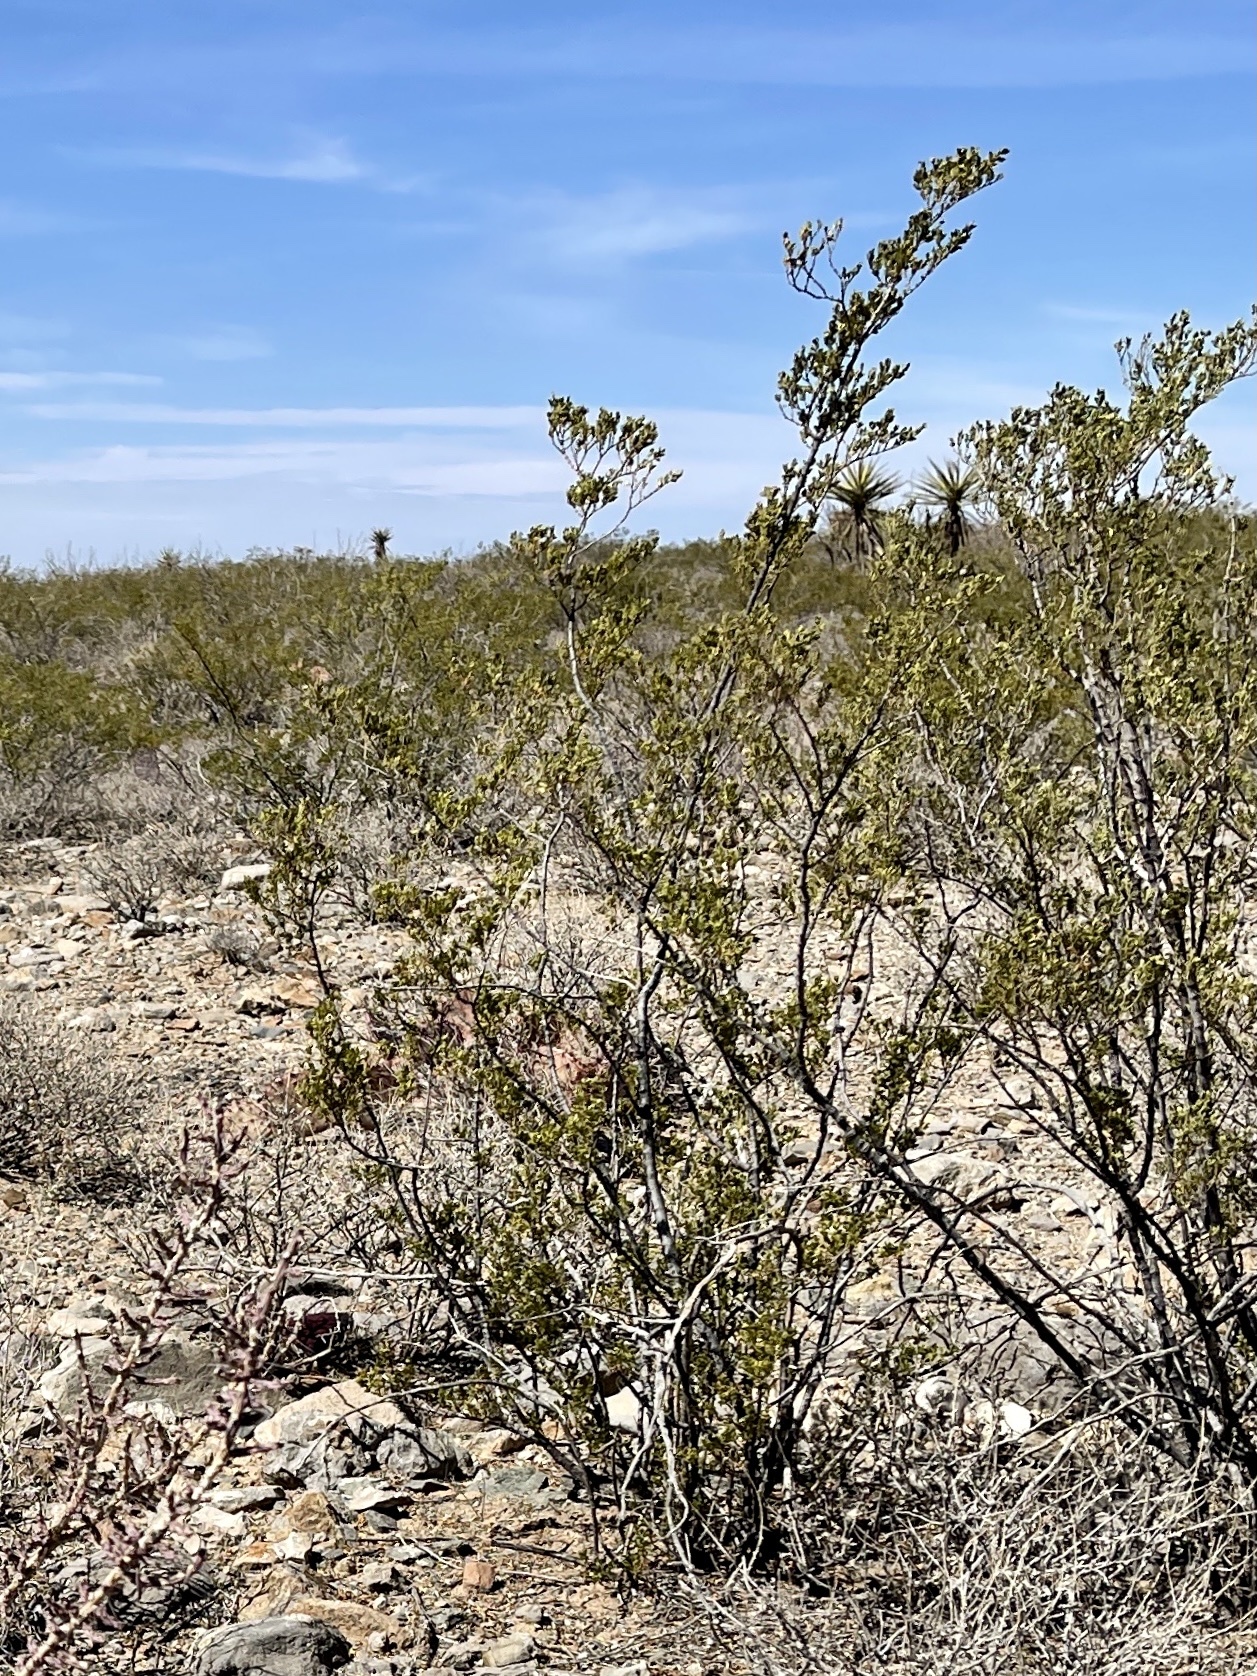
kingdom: Plantae
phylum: Tracheophyta
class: Magnoliopsida
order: Zygophyllales
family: Zygophyllaceae
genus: Larrea
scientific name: Larrea tridentata
